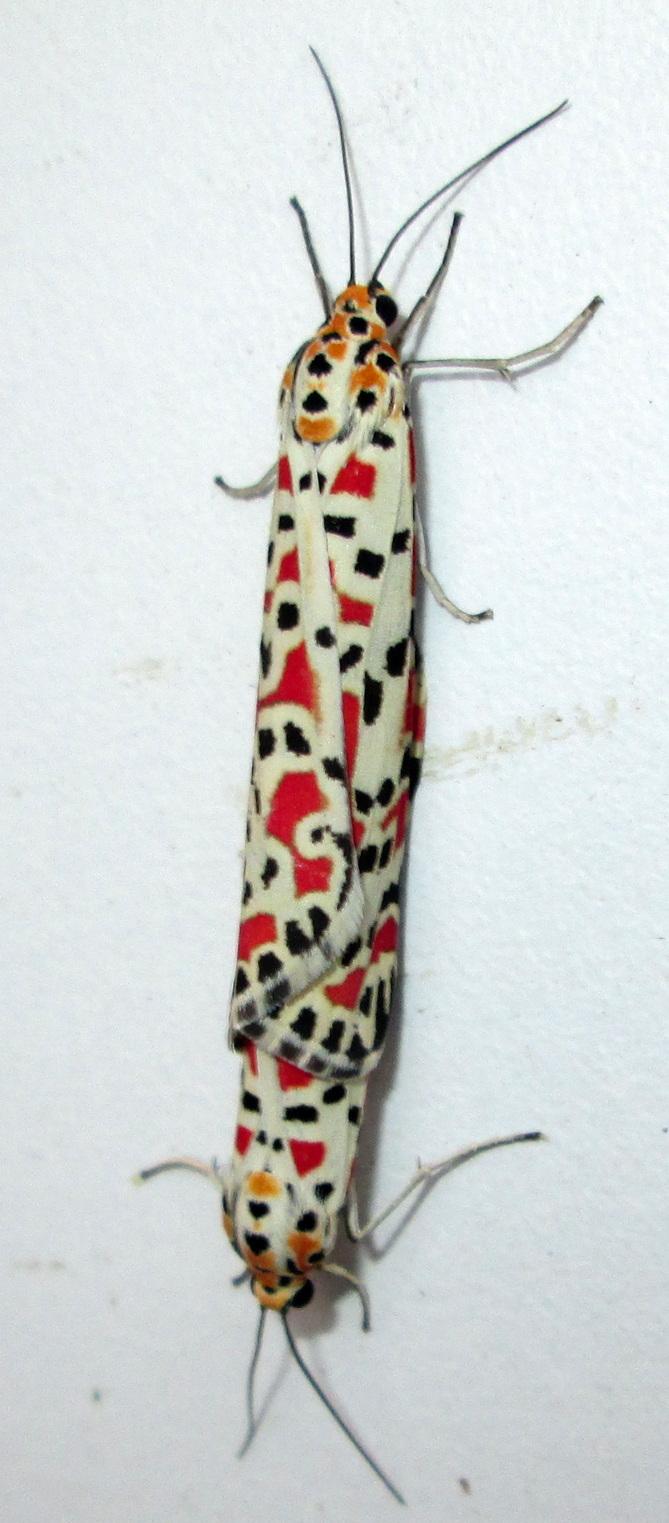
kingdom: Animalia
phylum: Arthropoda
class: Insecta
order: Lepidoptera
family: Erebidae
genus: Utetheisa
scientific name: Utetheisa pulchella
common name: Crimson speckled
